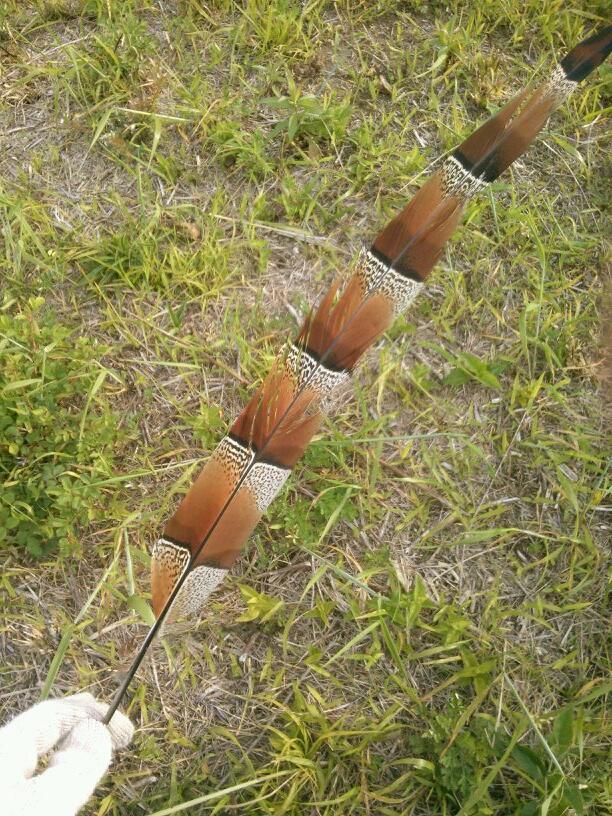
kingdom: Animalia
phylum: Chordata
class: Aves
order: Galliformes
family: Phasianidae
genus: Syrmaticus
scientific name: Syrmaticus soemmerringii
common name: Copper pheasant
